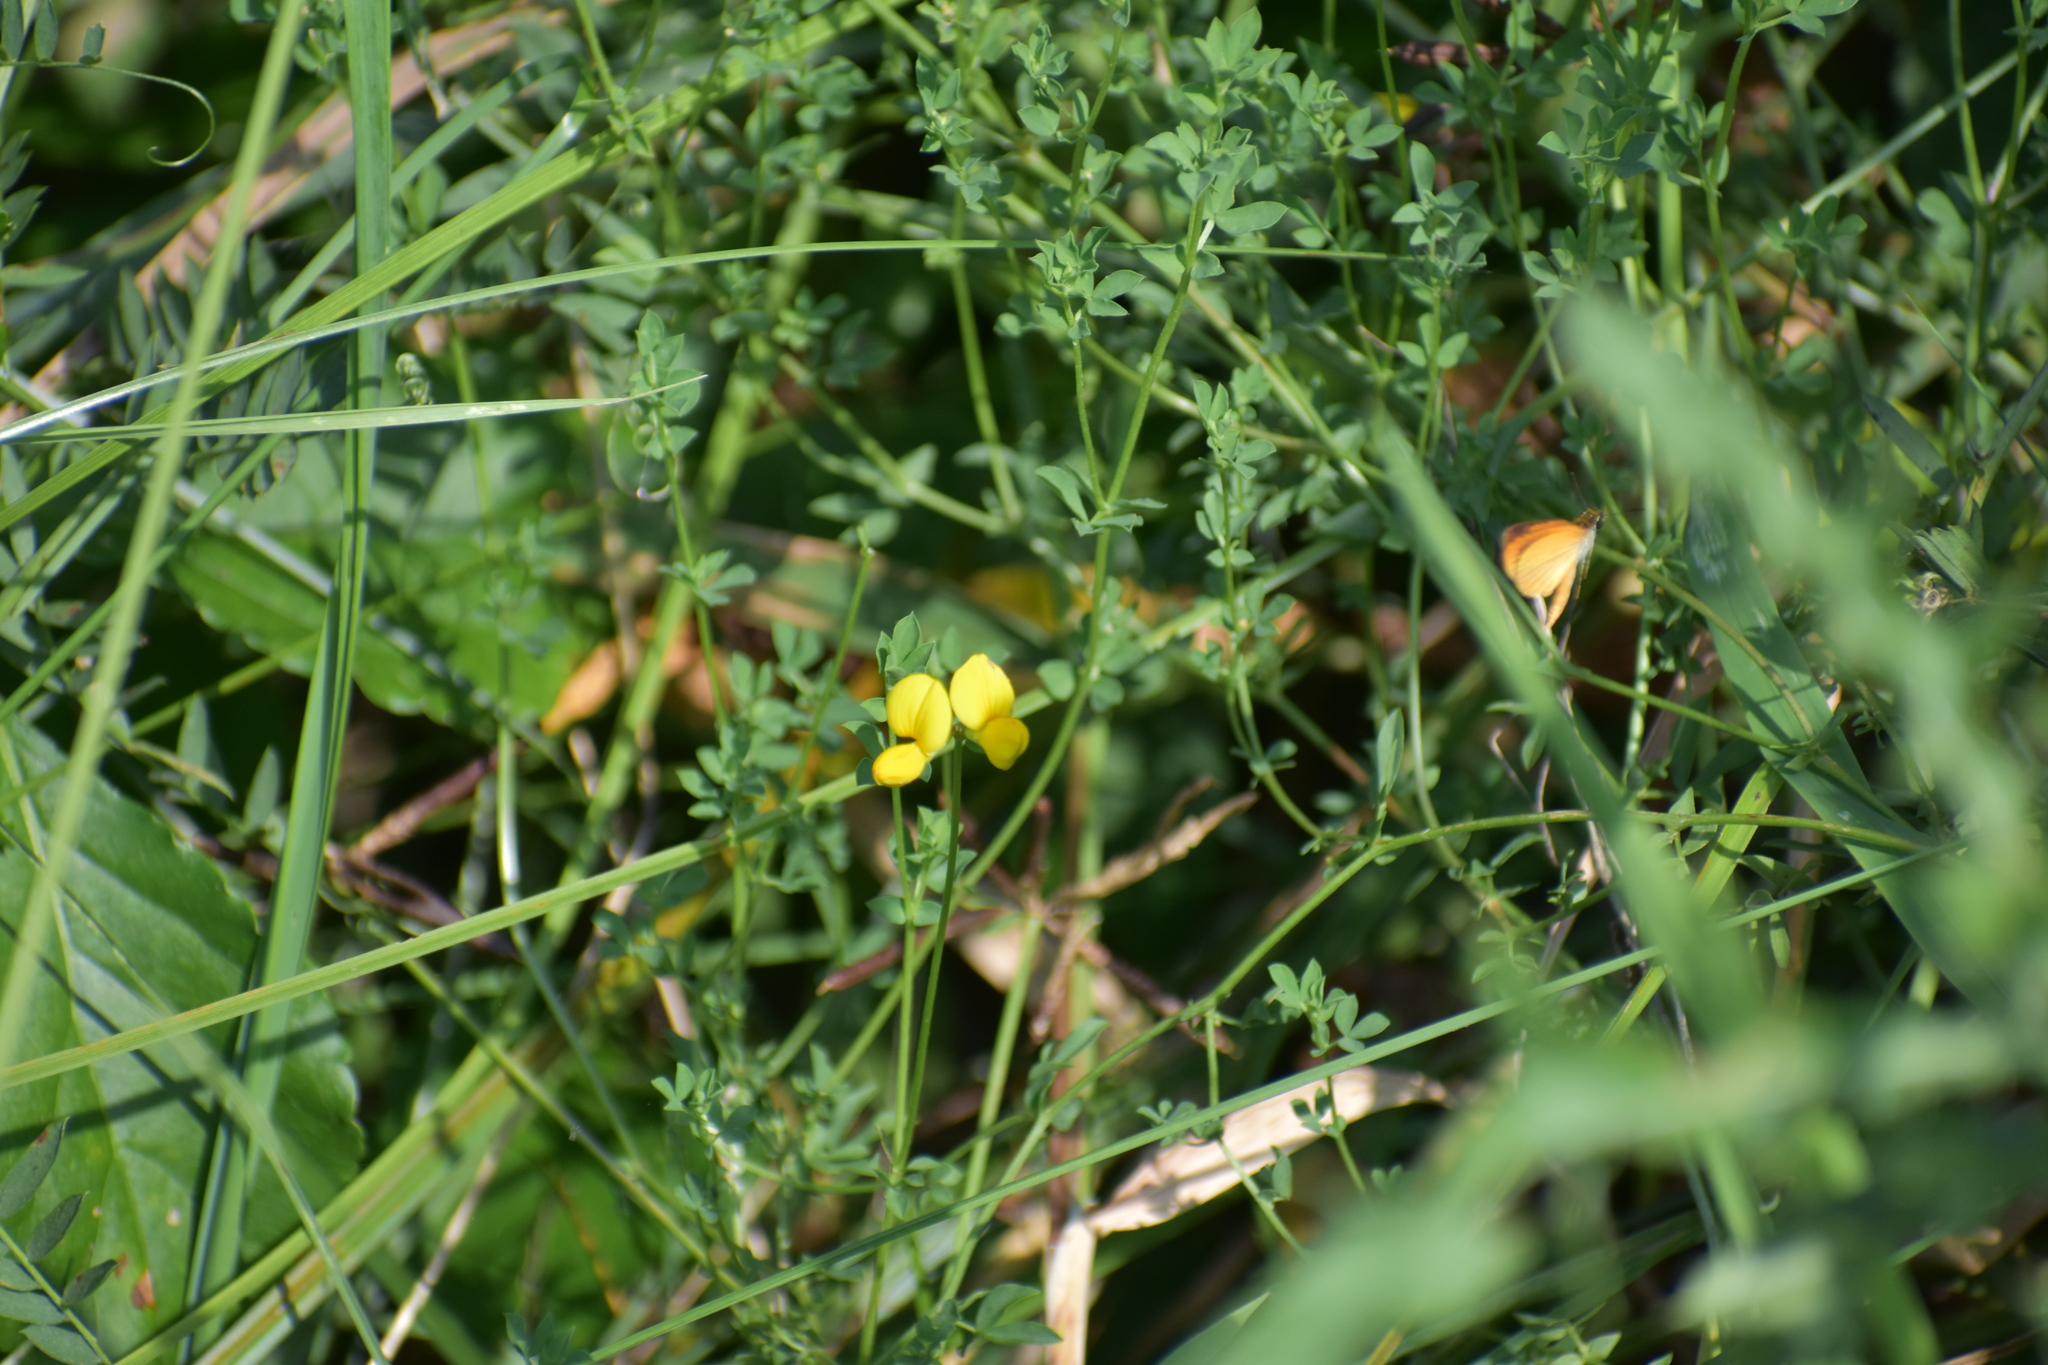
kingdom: Animalia
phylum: Arthropoda
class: Insecta
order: Lepidoptera
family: Hesperiidae
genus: Ancyloxypha
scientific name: Ancyloxypha numitor
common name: Least skipper
